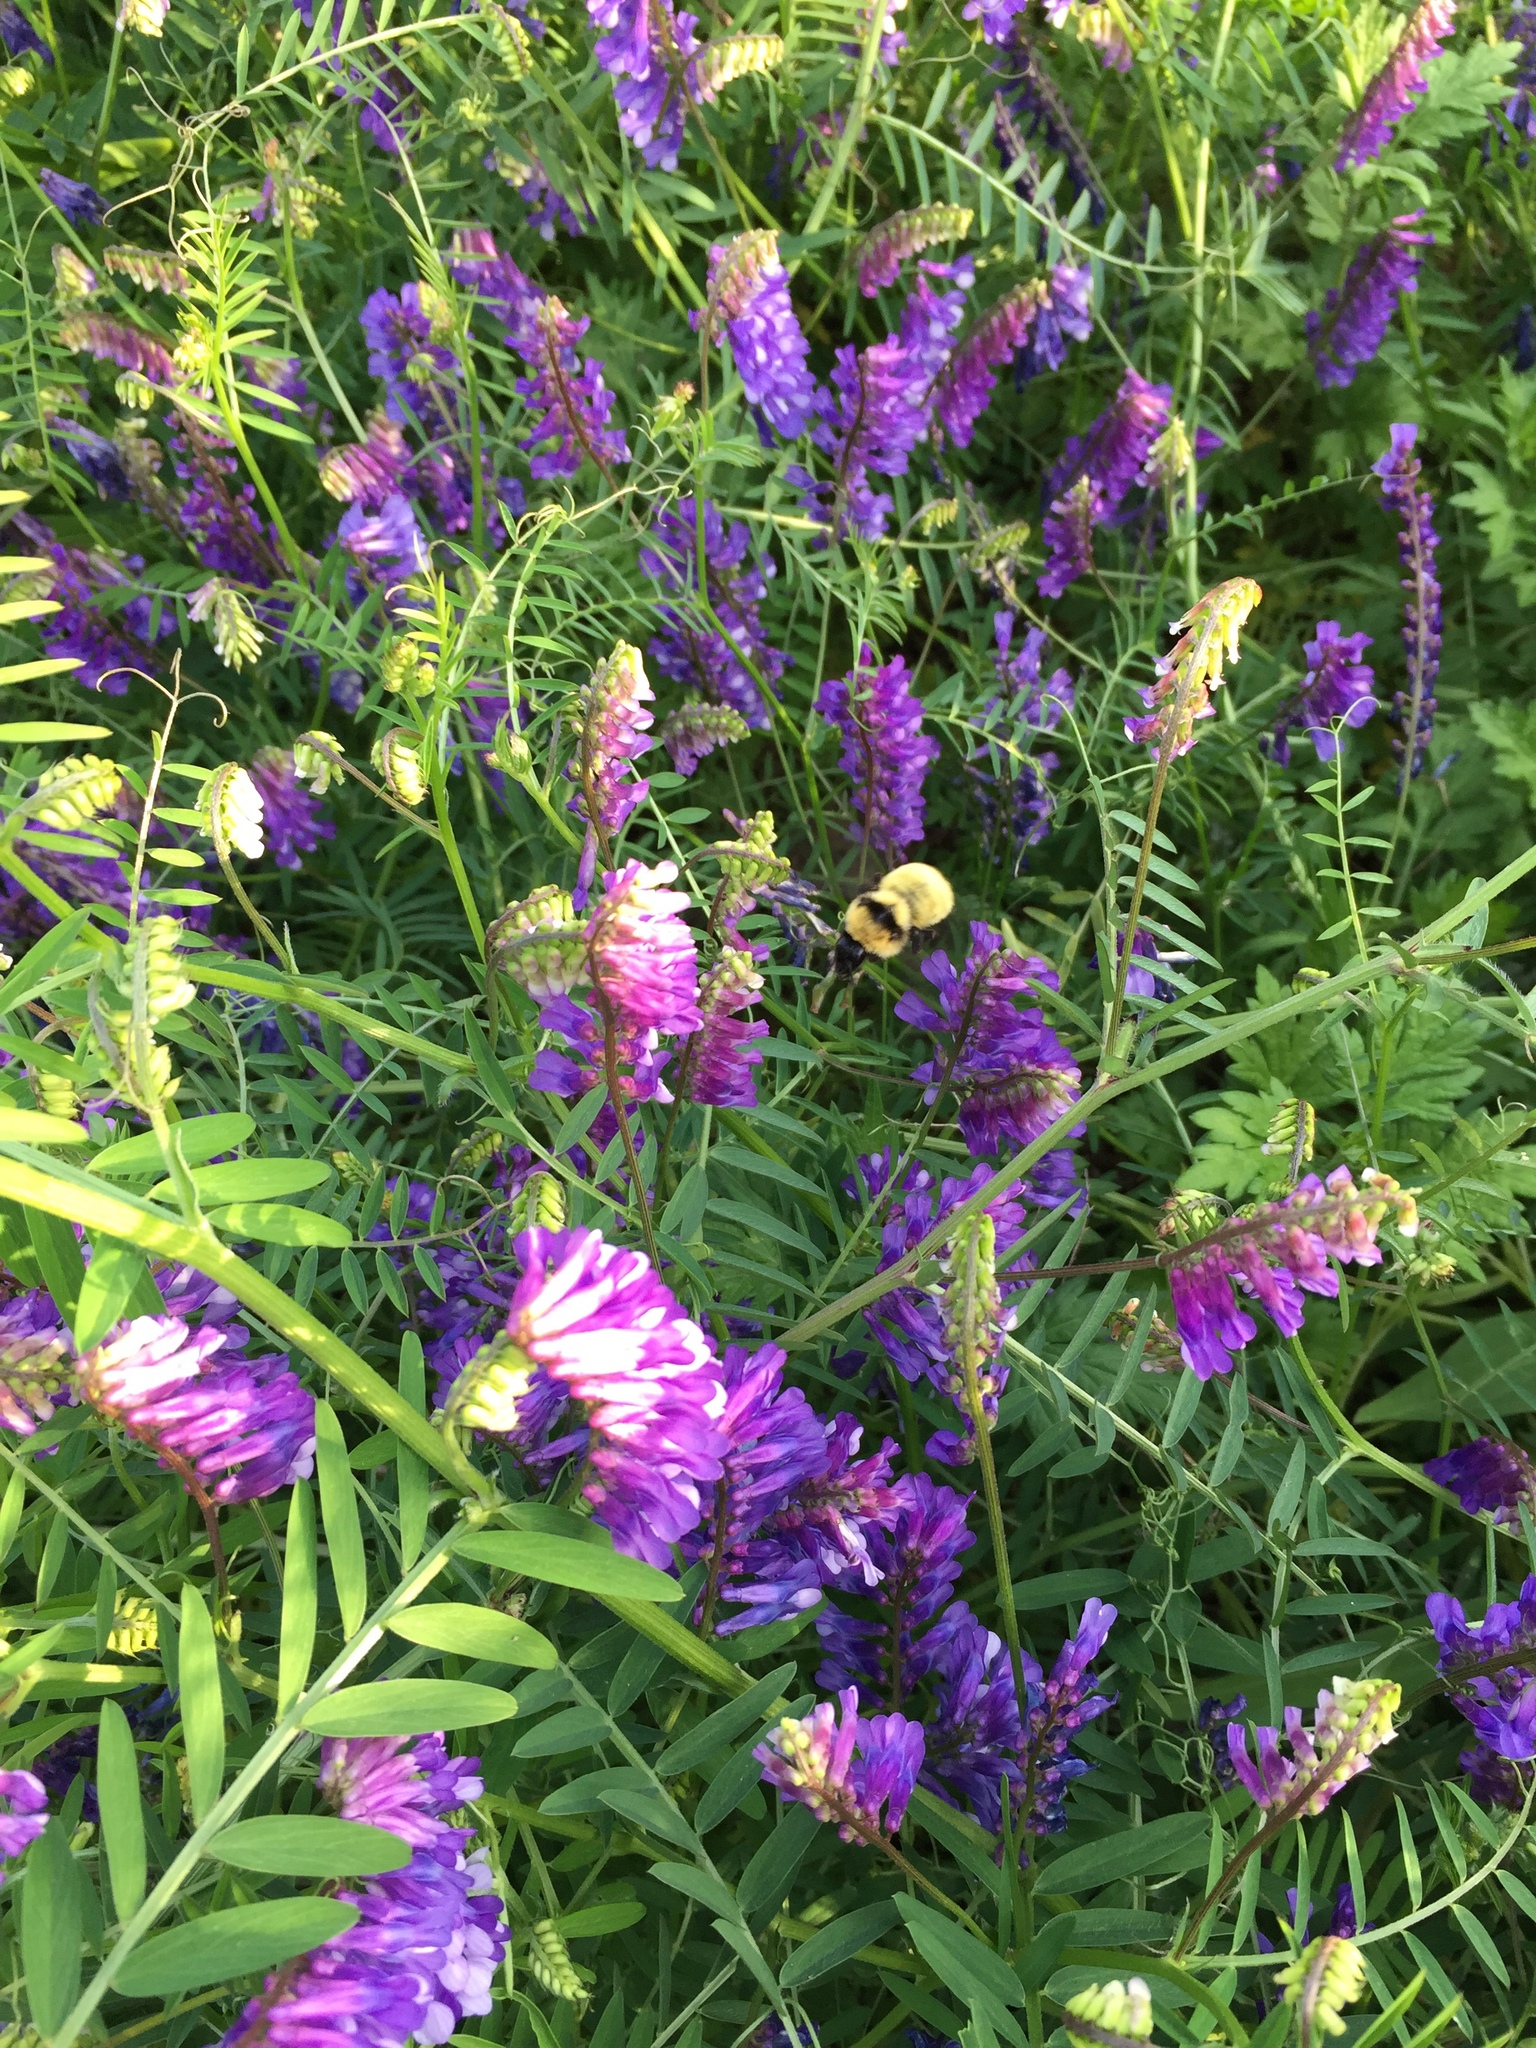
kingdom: Animalia
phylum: Arthropoda
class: Insecta
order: Hymenoptera
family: Apidae
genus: Bombus
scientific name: Bombus fervidus
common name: Yellow bumble bee
